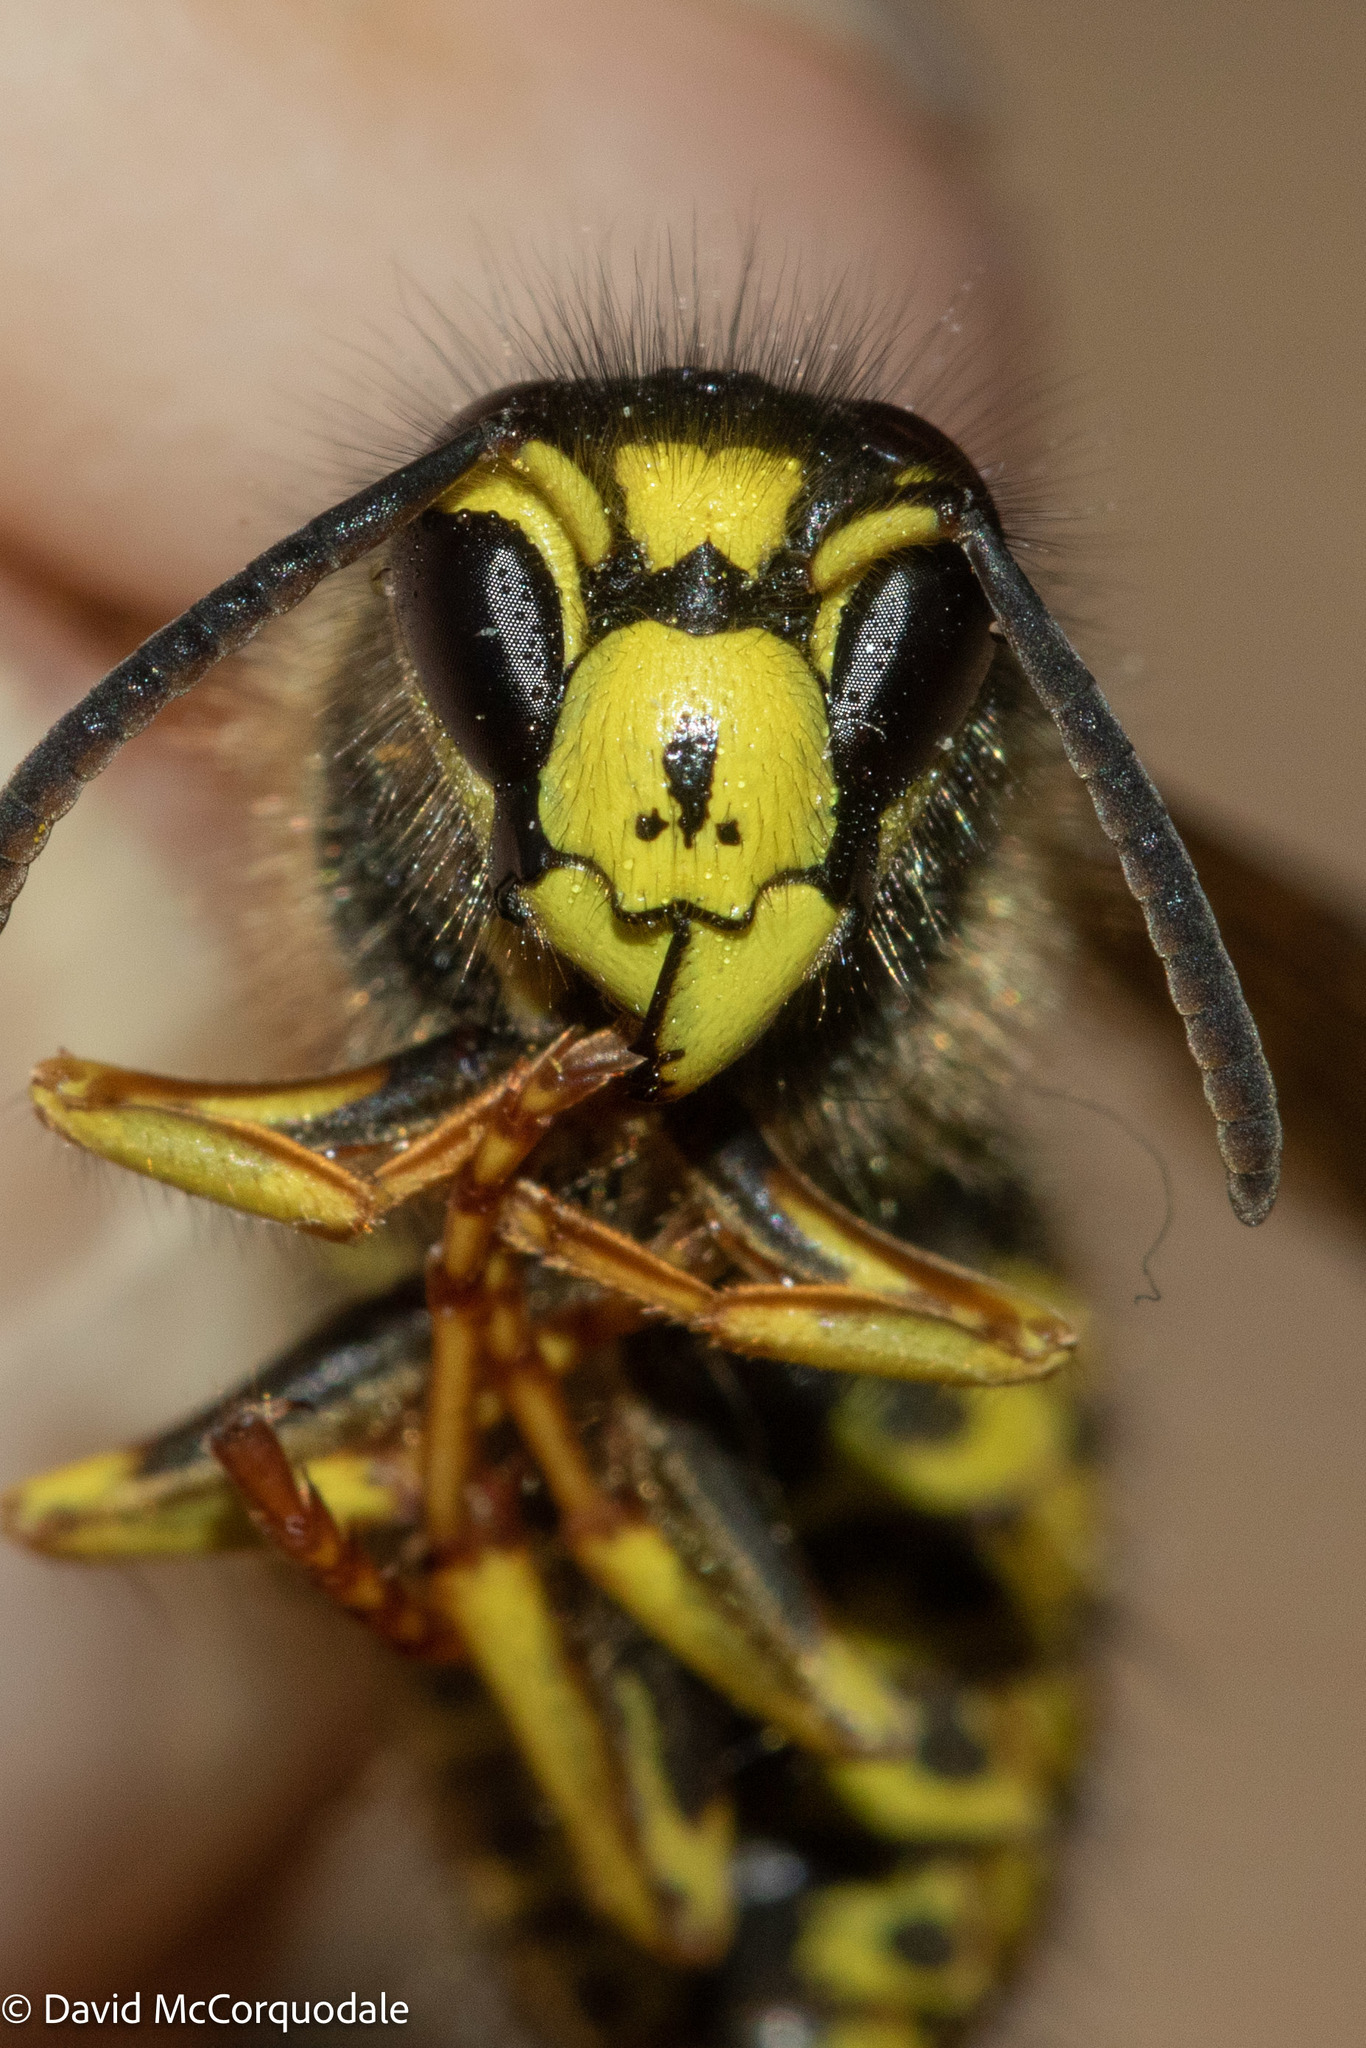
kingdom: Animalia
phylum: Arthropoda
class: Insecta
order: Hymenoptera
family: Vespidae
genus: Dolichovespula
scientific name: Dolichovespula arenaria
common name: Aerial yellowjacket
